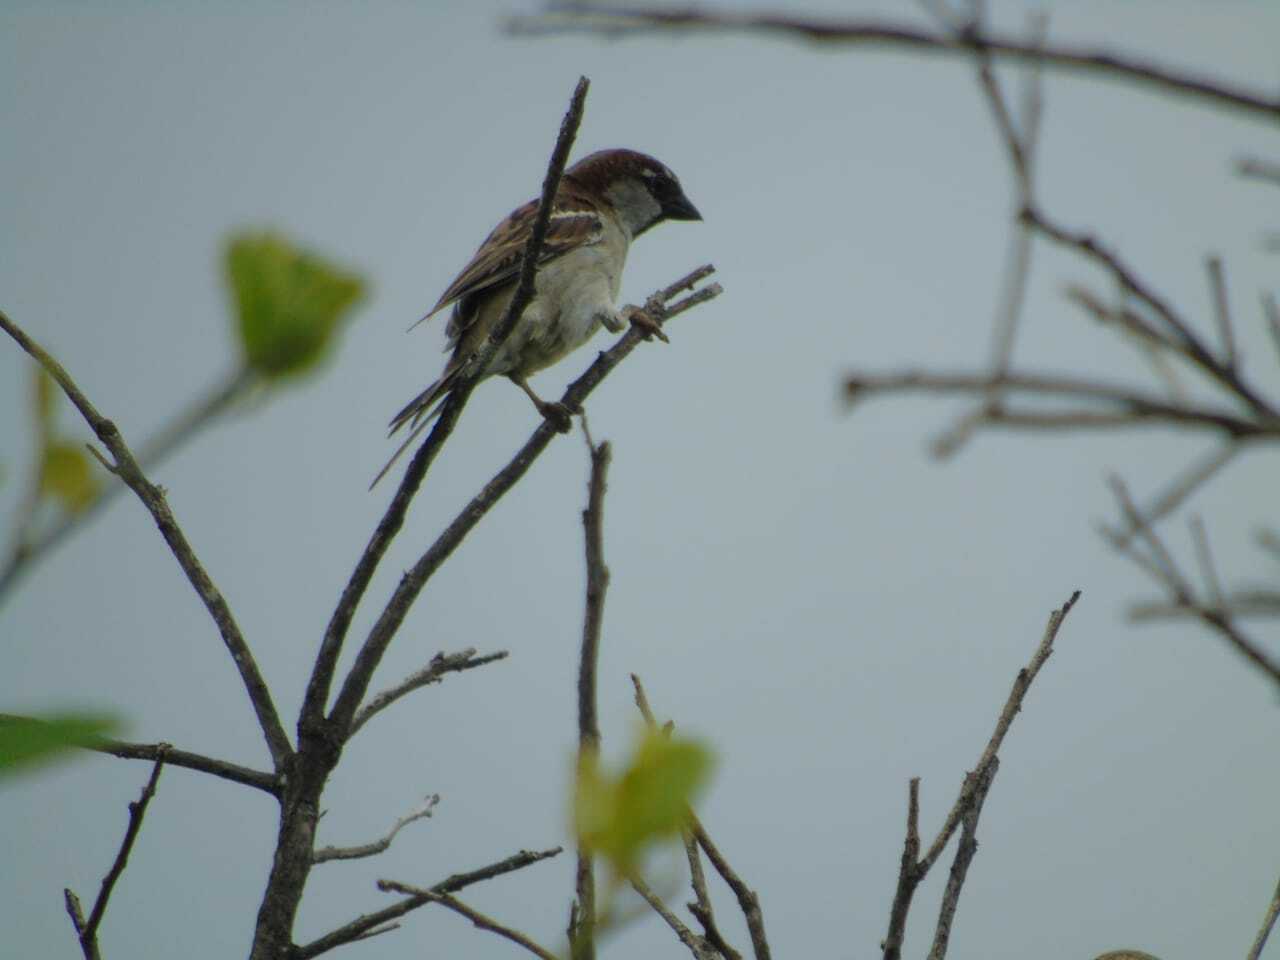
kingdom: Animalia
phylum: Chordata
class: Aves
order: Passeriformes
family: Passeridae
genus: Passer
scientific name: Passer domesticus
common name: House sparrow
